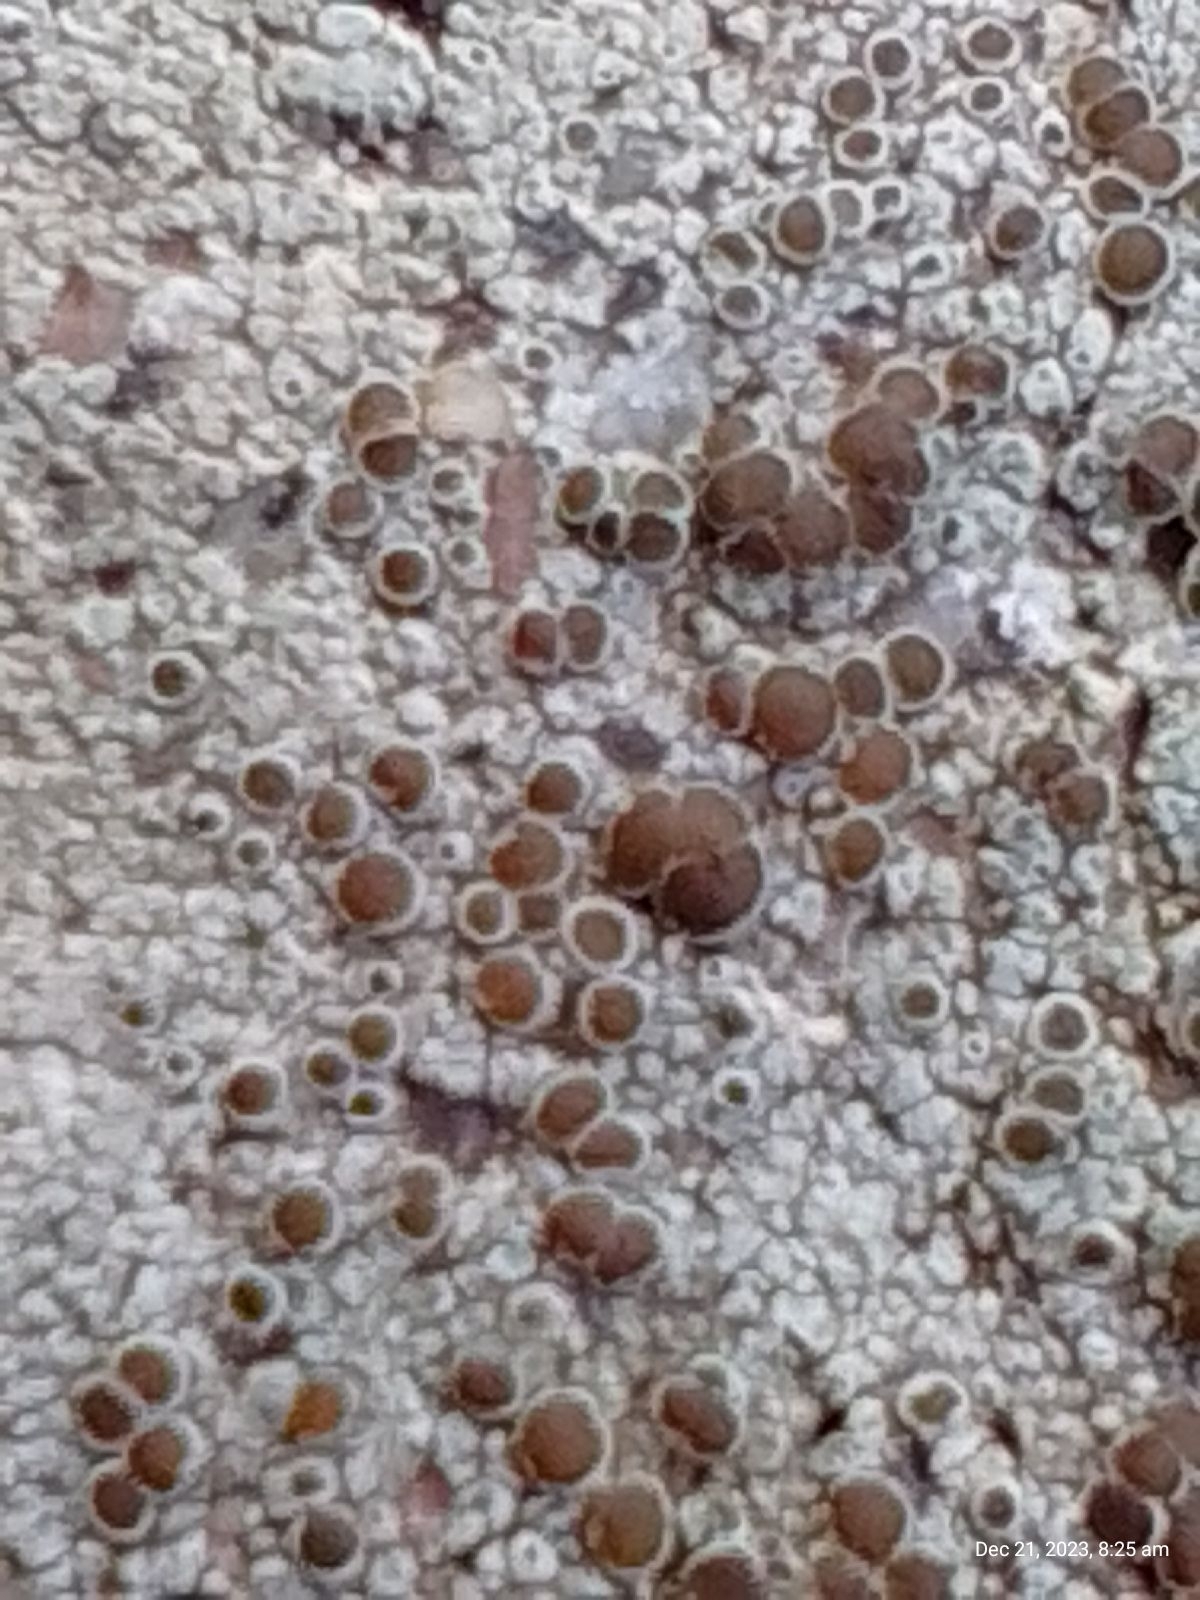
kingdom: Fungi
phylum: Ascomycota
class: Lecanoromycetes
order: Lecanorales
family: Lecanoraceae
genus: Lecanora
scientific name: Lecanora campestris
